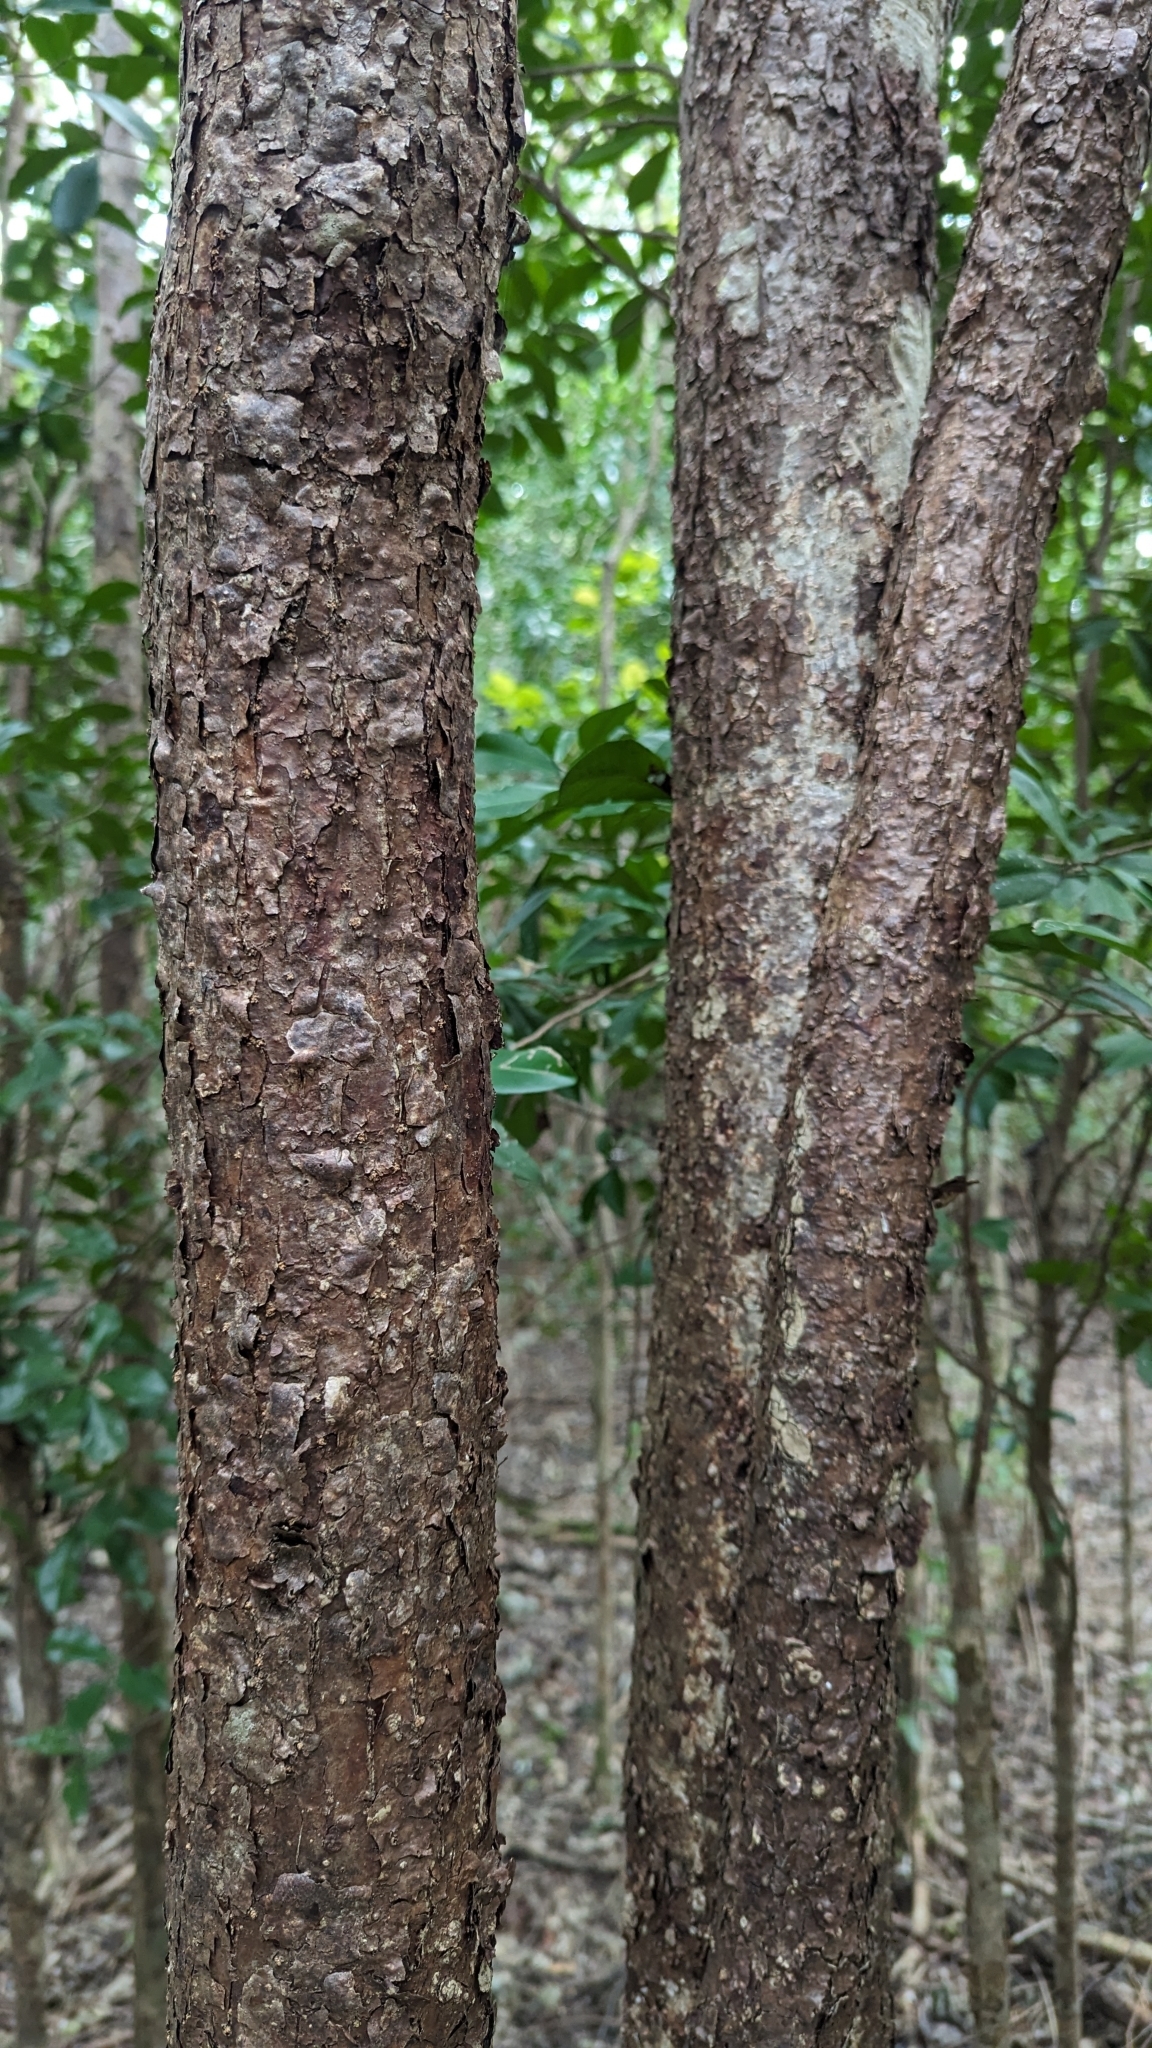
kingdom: Plantae
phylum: Tracheophyta
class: Magnoliopsida
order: Sapindales
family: Burseraceae
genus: Bursera
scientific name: Bursera simaruba
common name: Turpentine tree
